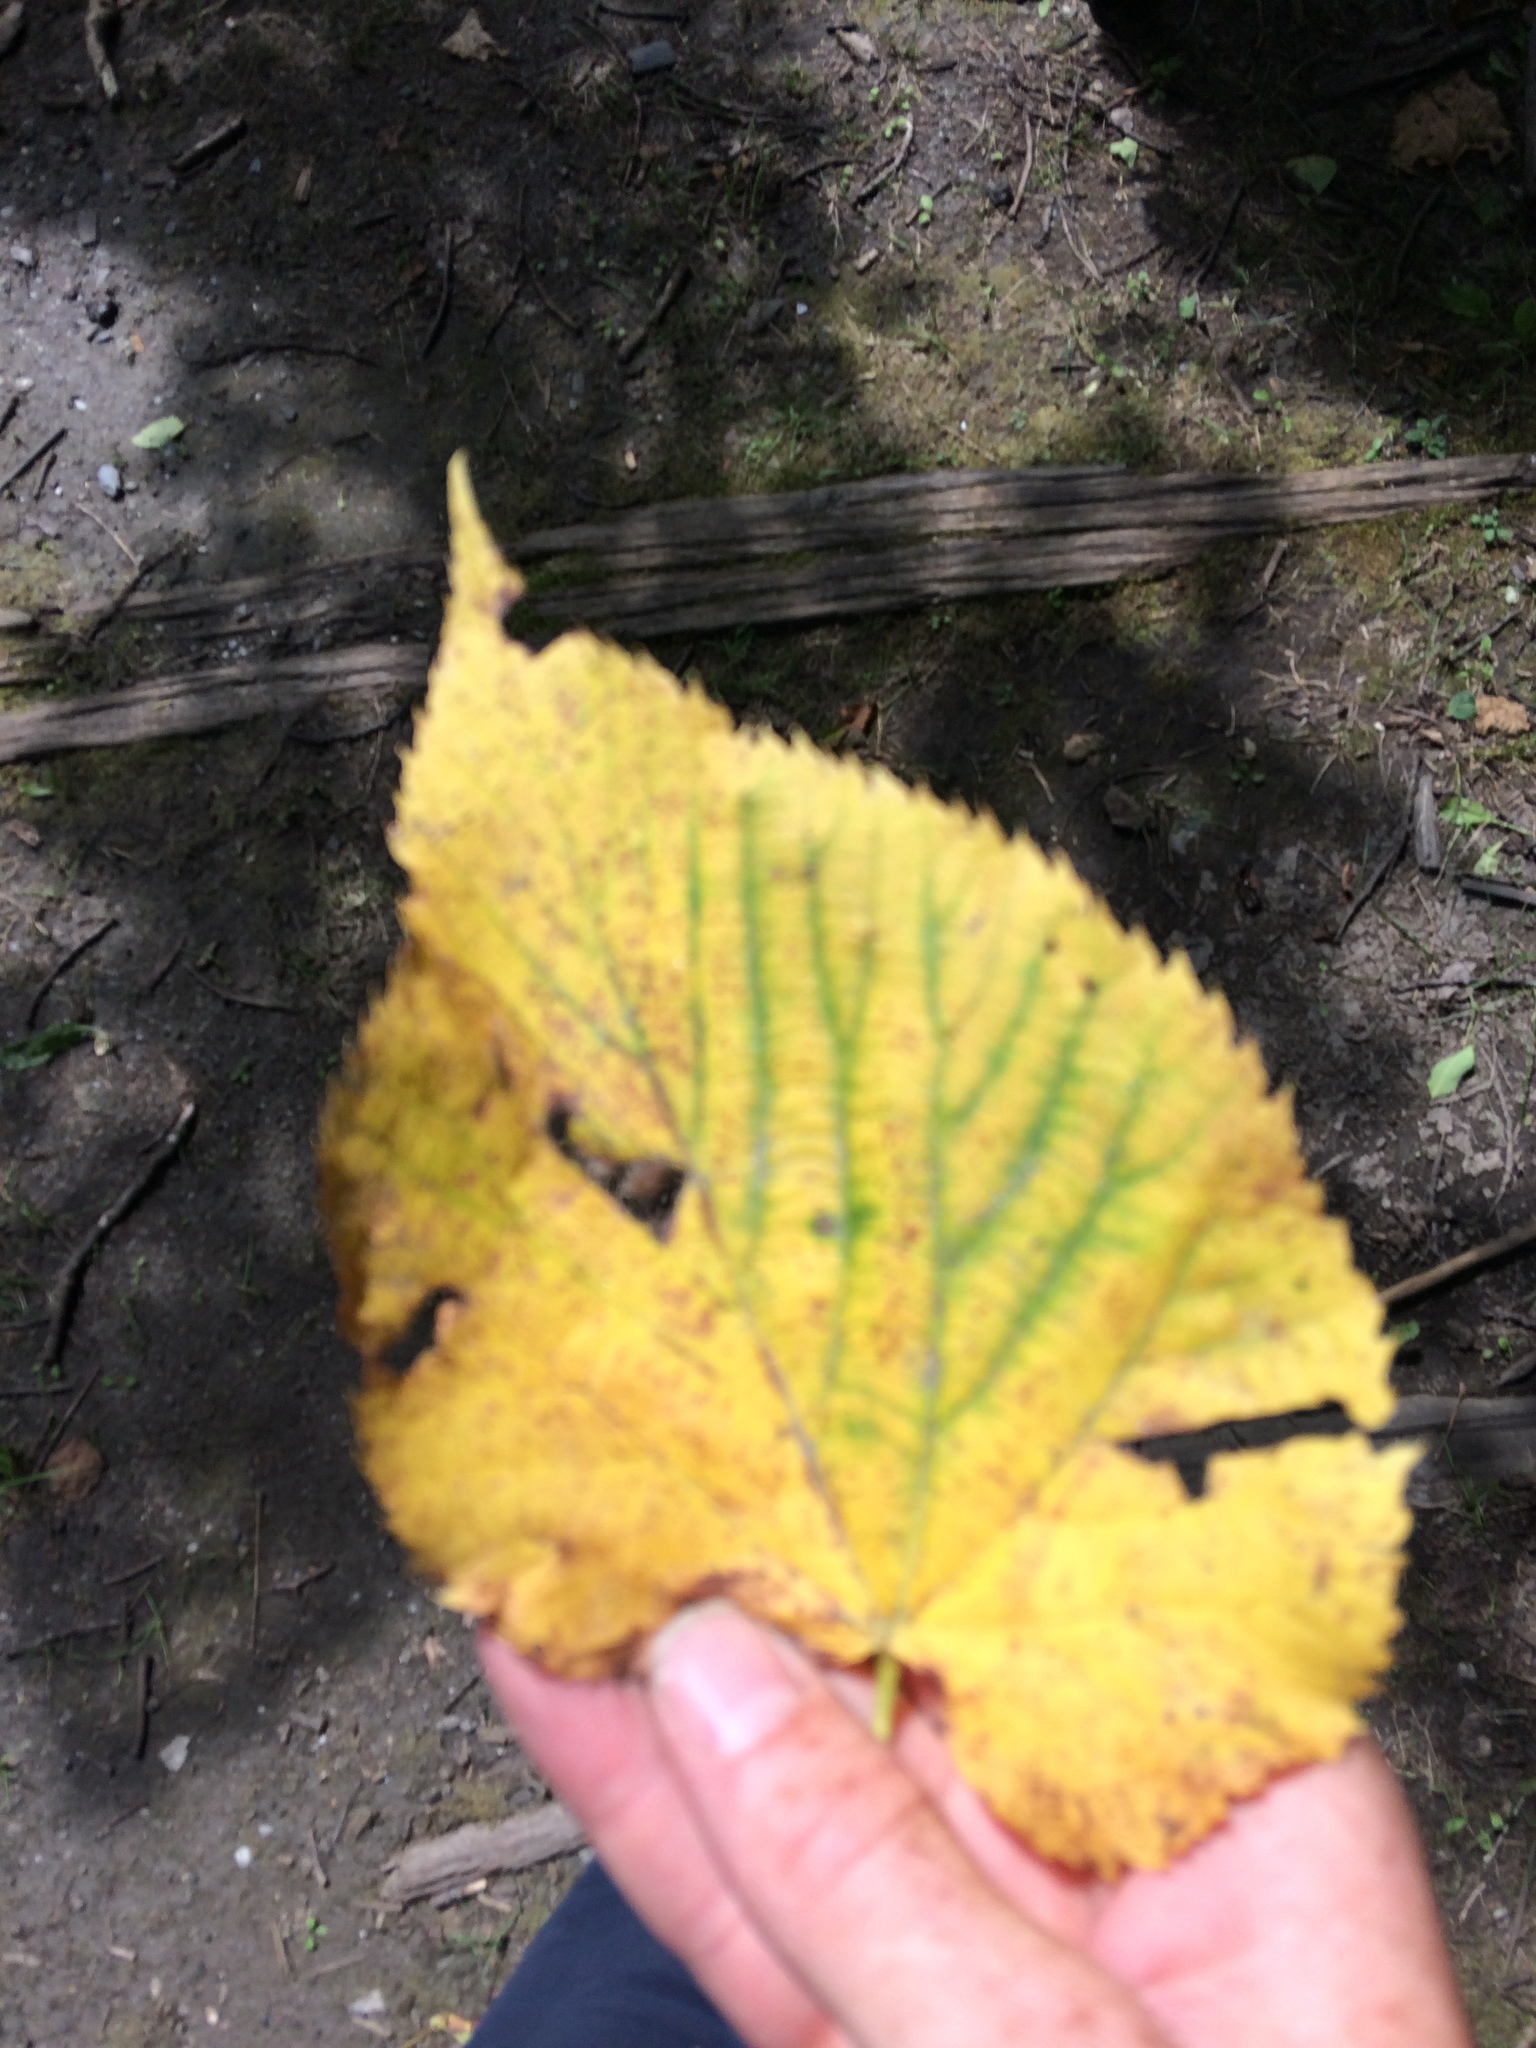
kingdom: Plantae
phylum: Tracheophyta
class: Magnoliopsida
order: Malvales
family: Malvaceae
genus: Tilia
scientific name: Tilia americana
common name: Basswood
